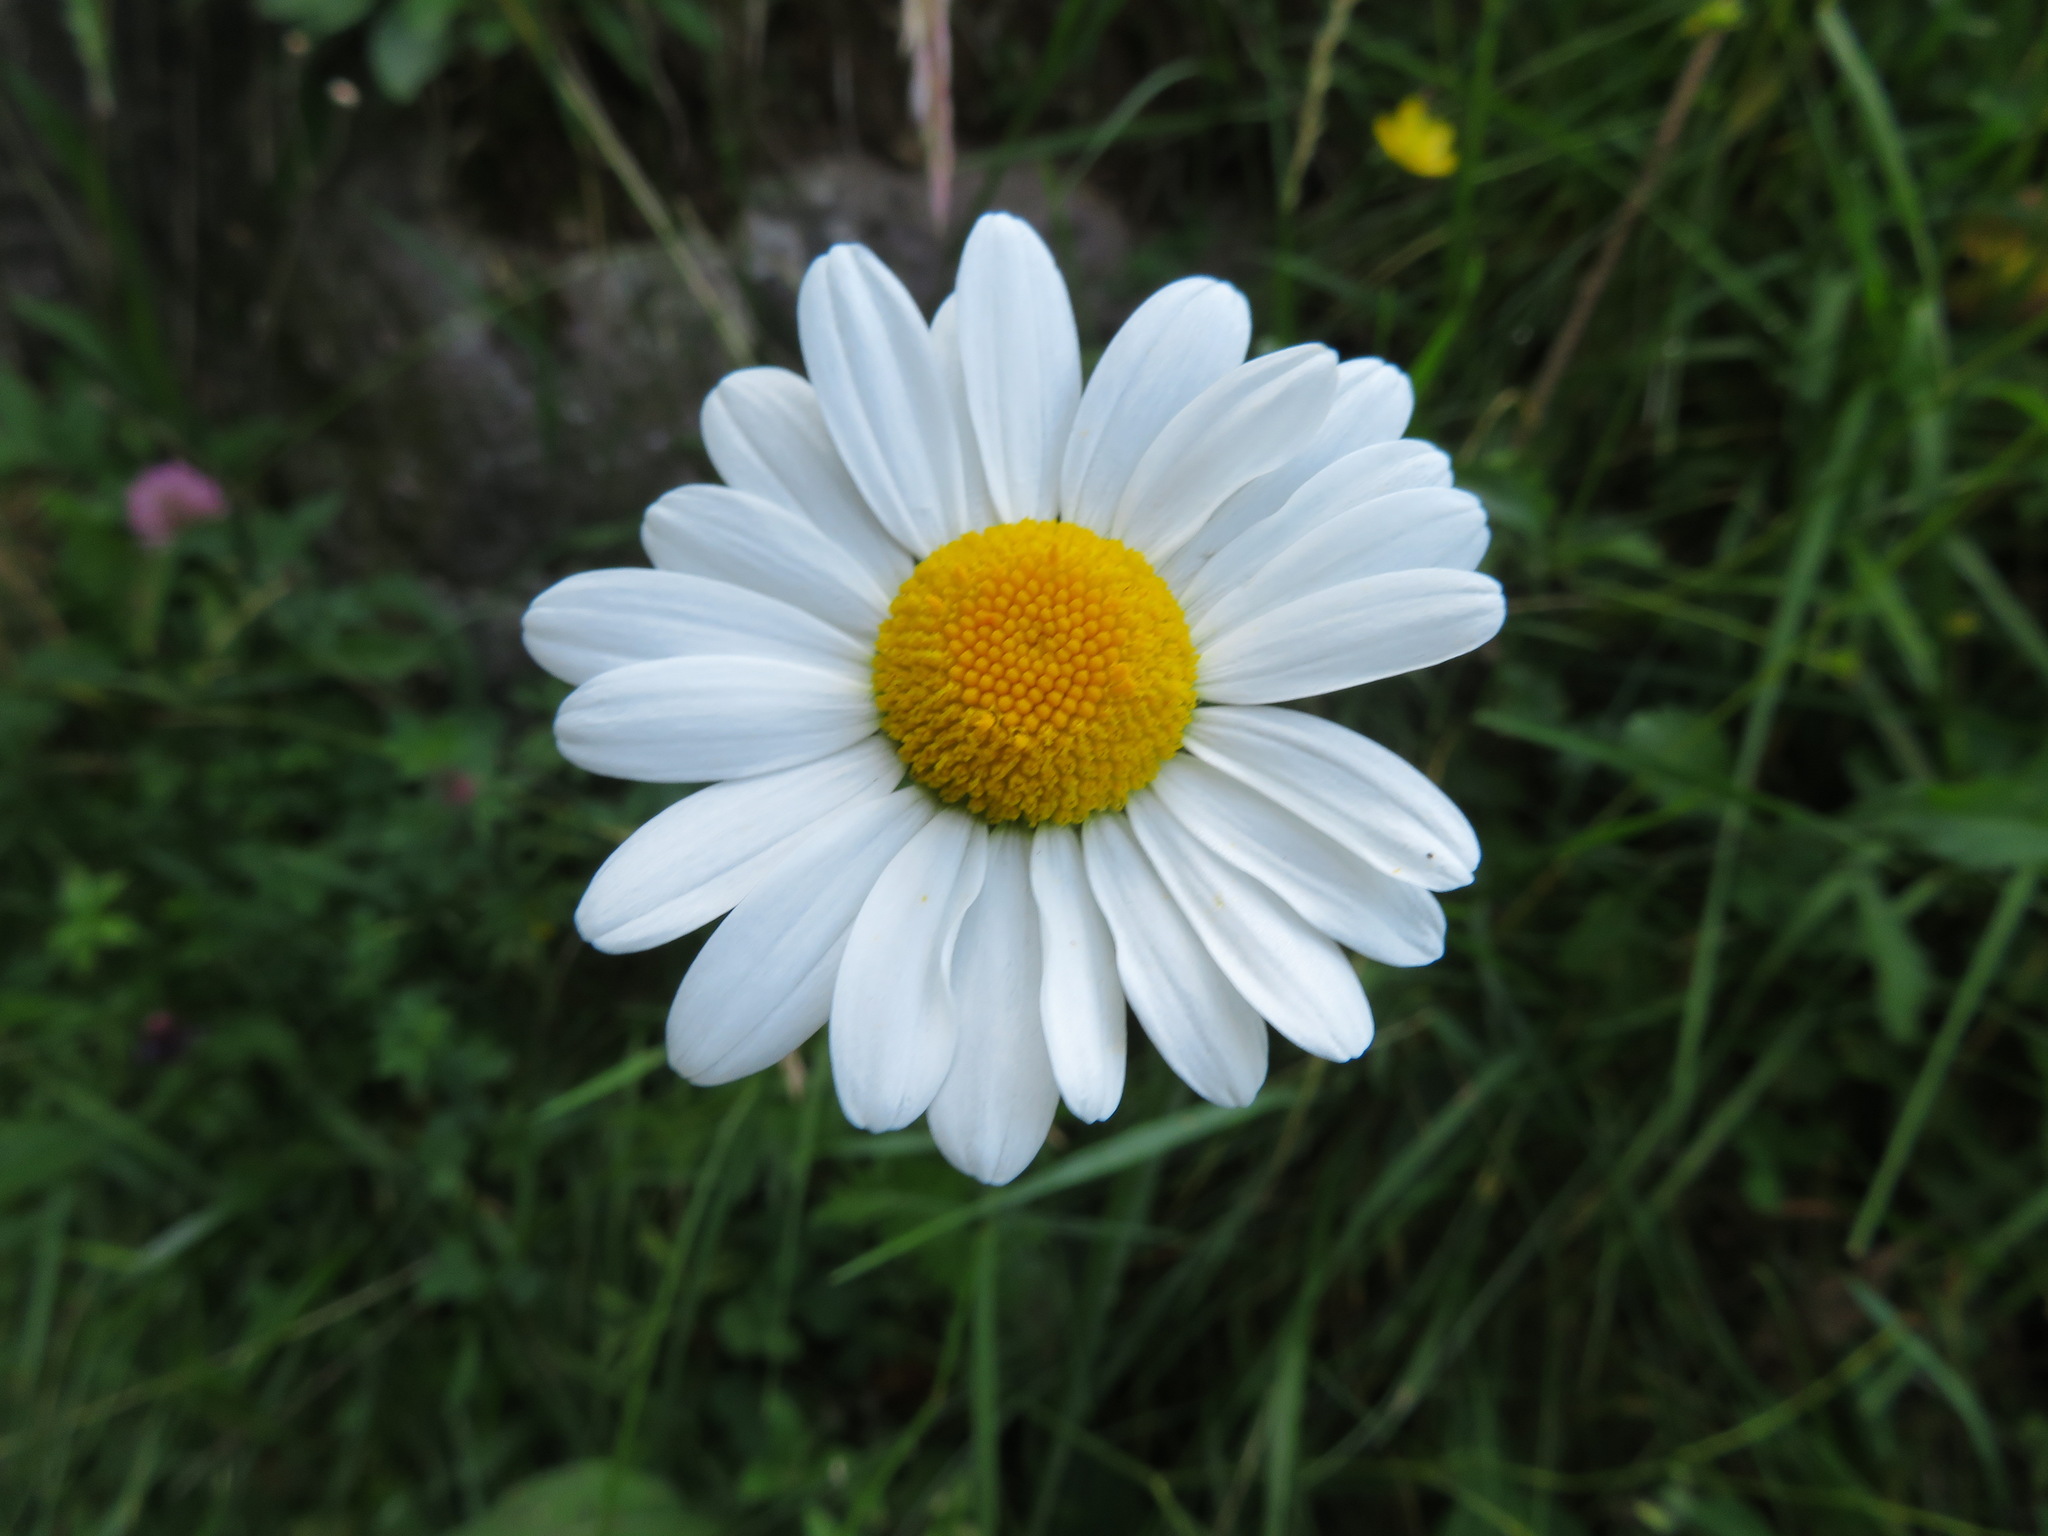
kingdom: Plantae
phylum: Tracheophyta
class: Magnoliopsida
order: Asterales
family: Asteraceae
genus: Leucanthemum
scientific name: Leucanthemum vulgare
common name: Oxeye daisy
